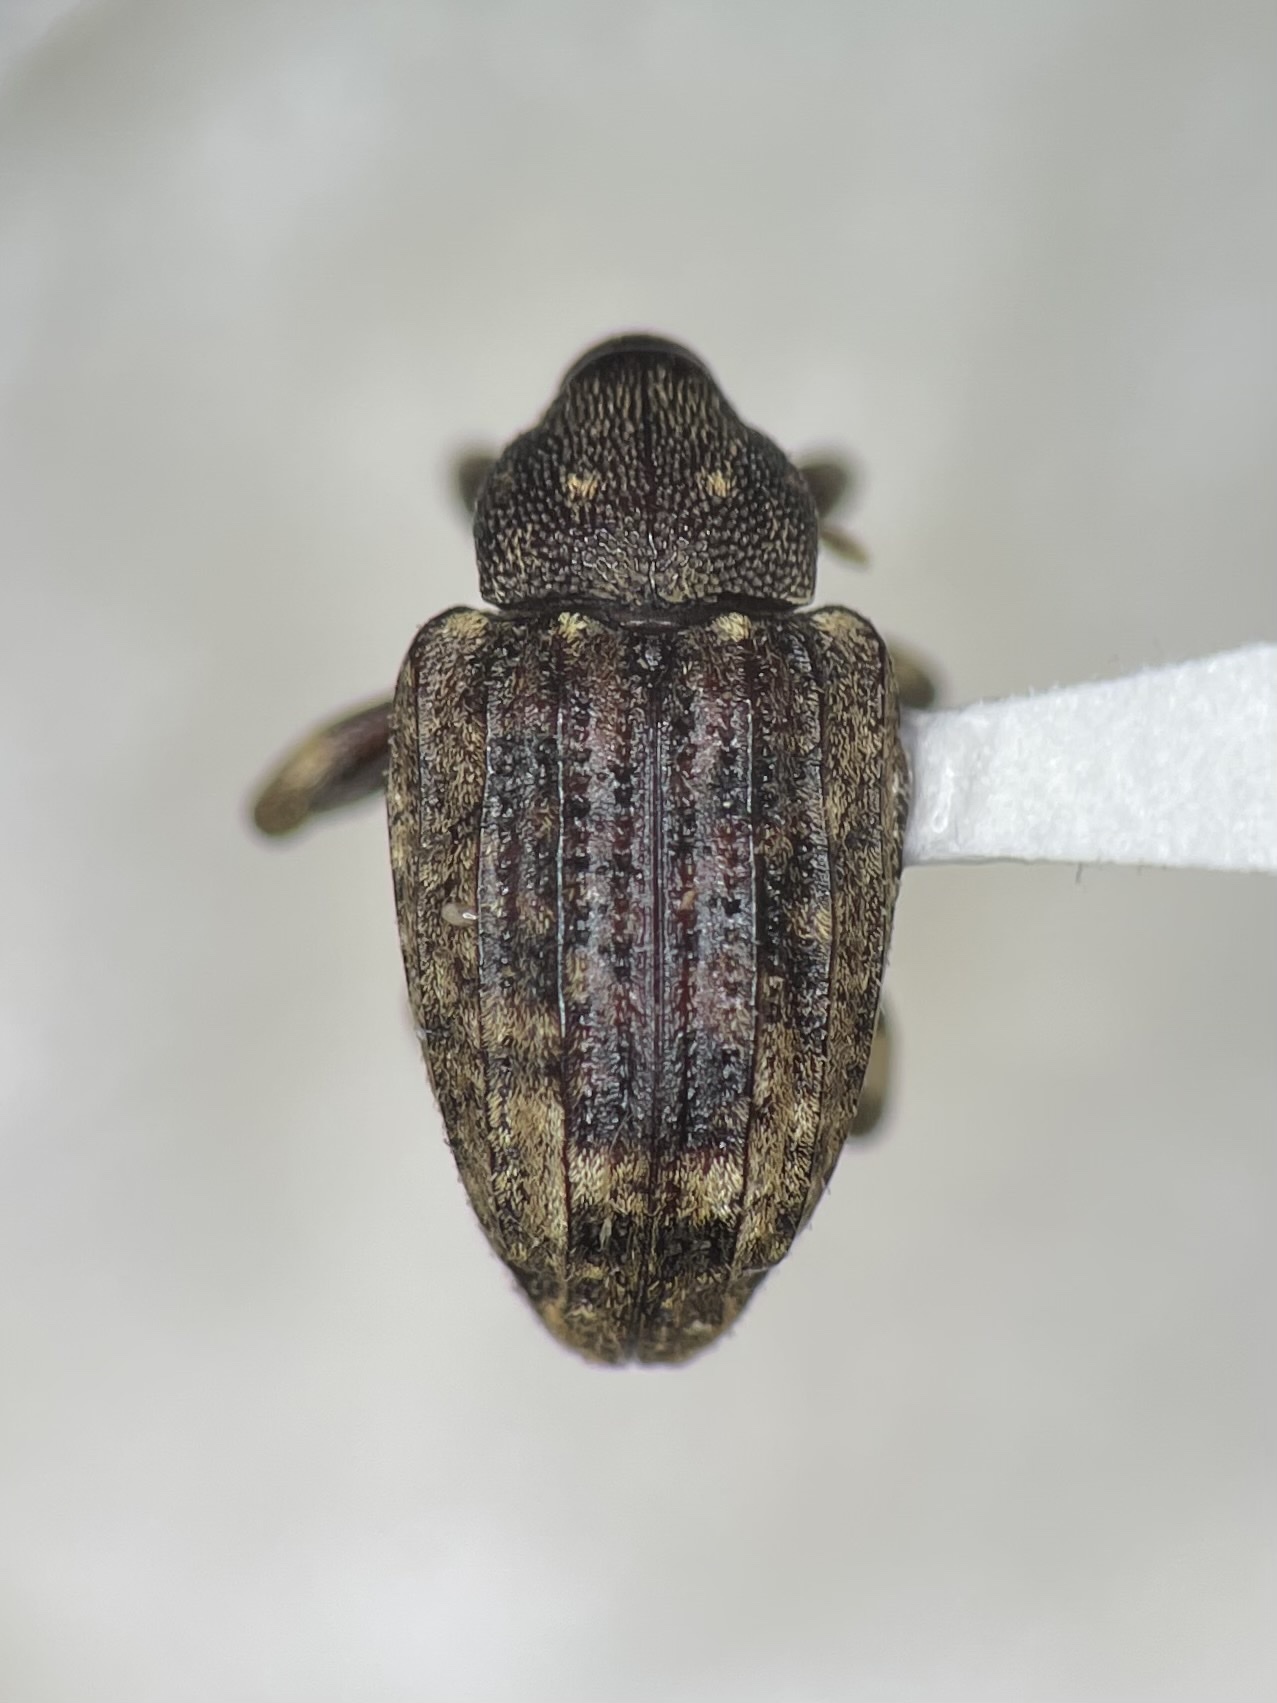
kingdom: Animalia
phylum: Arthropoda
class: Insecta
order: Coleoptera
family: Curculionidae
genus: Conotrachelus
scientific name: Conotrachelus naso
